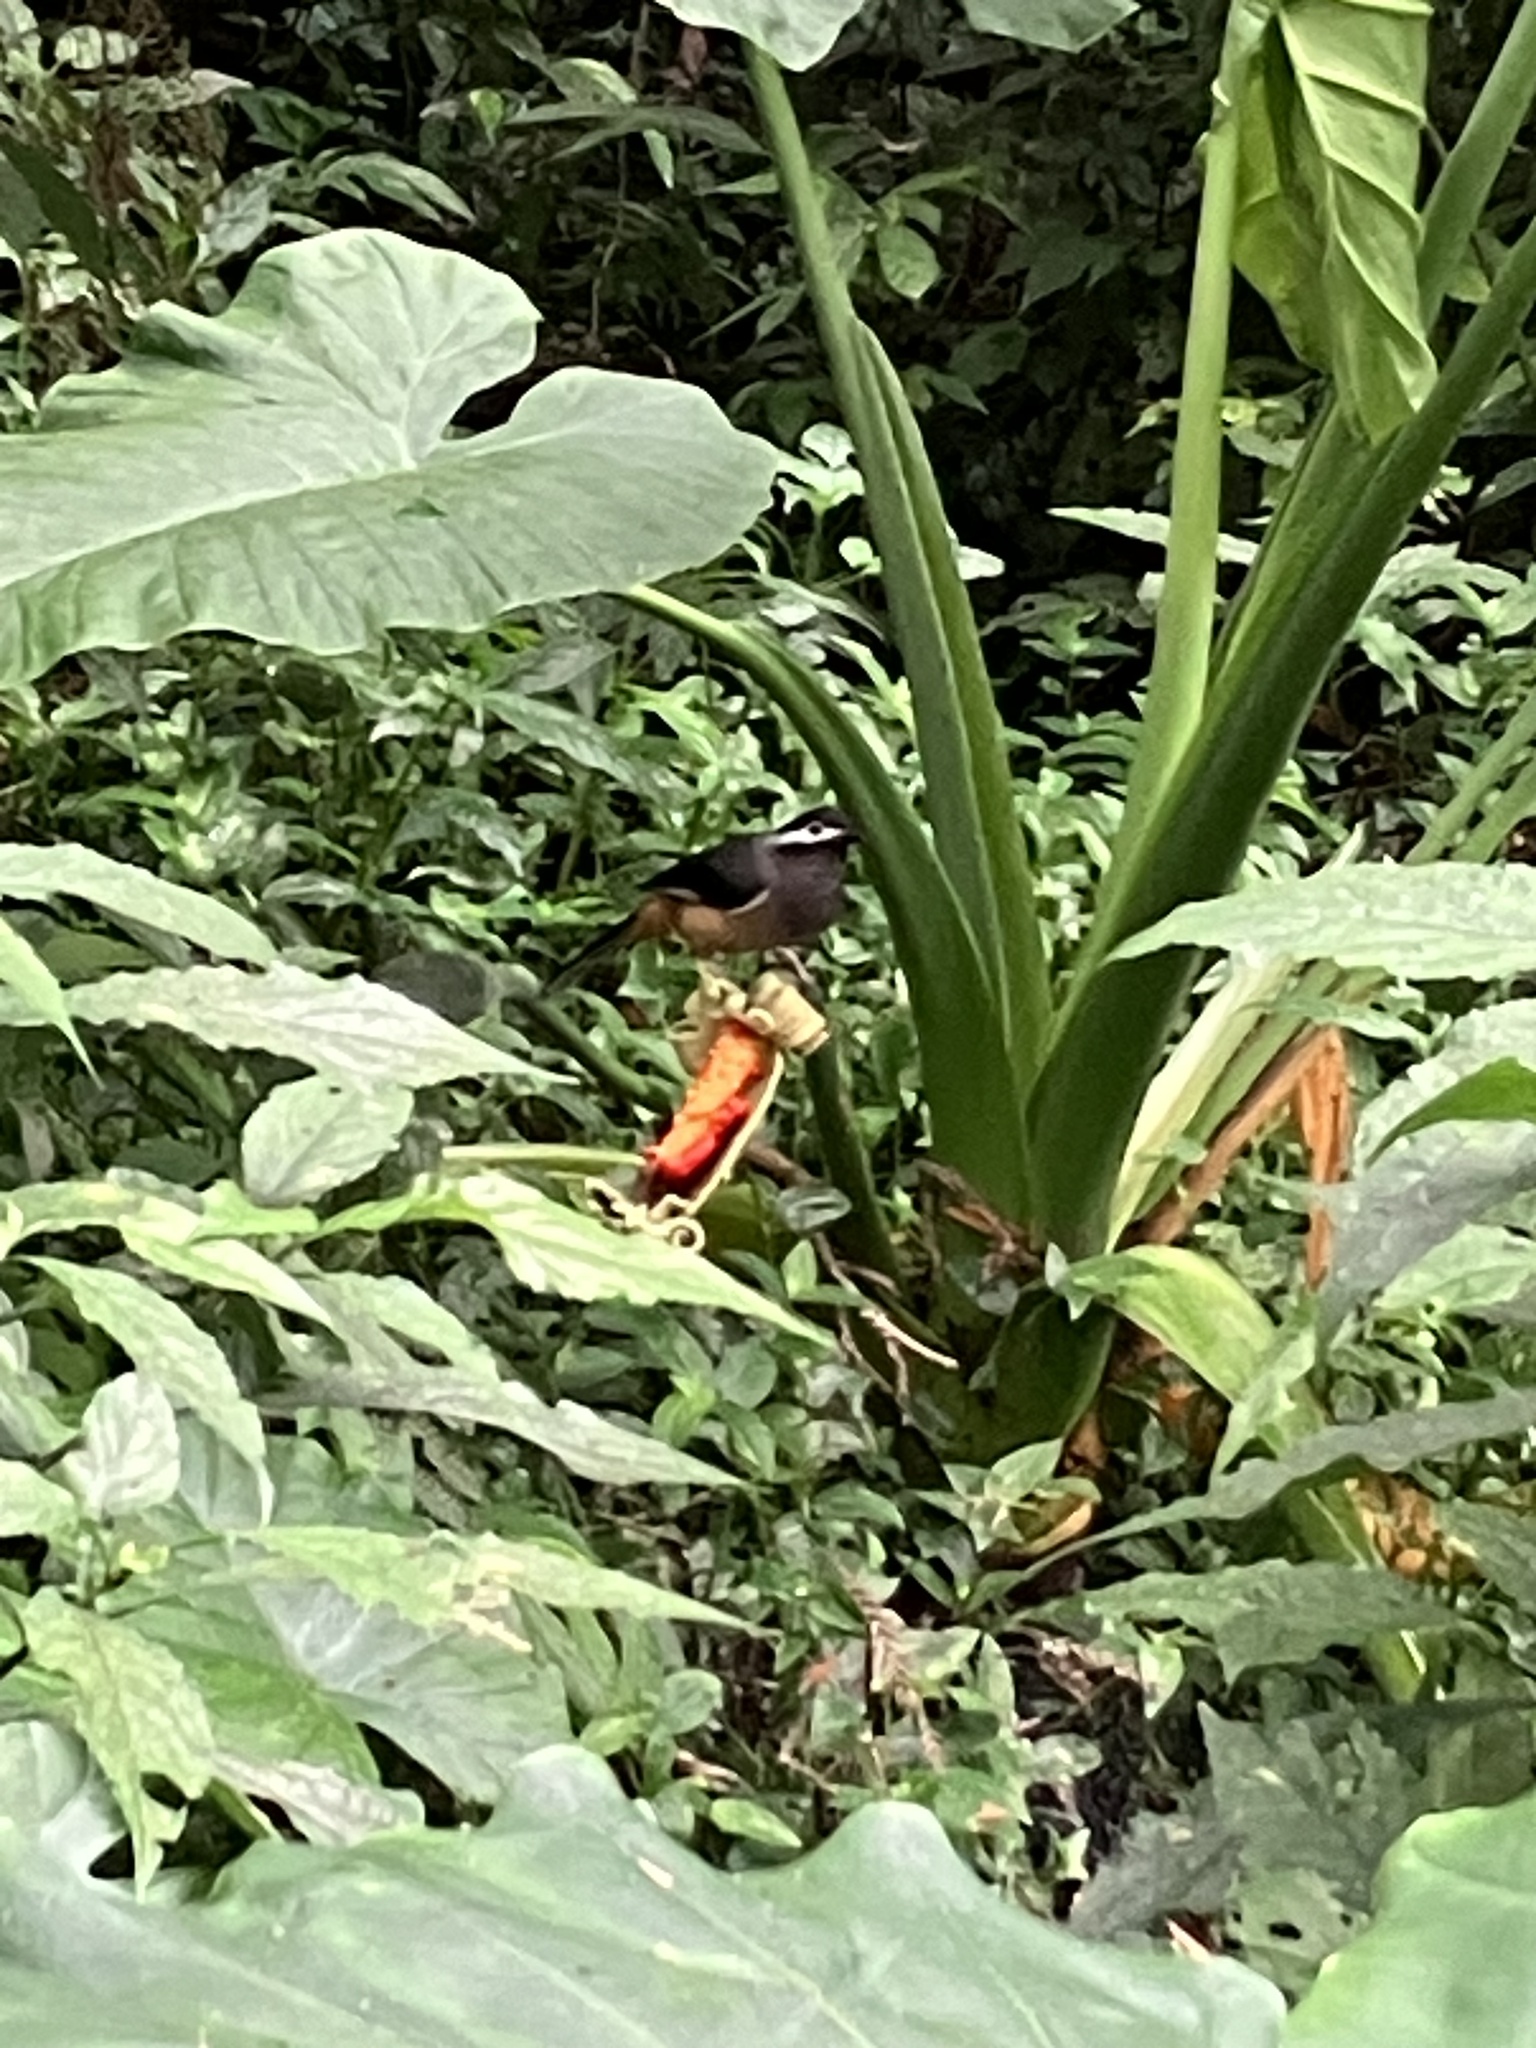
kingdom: Animalia
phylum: Chordata
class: Aves
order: Passeriformes
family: Leiothrichidae
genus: Heterophasia
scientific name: Heterophasia auricularis
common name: White-eared sibia
